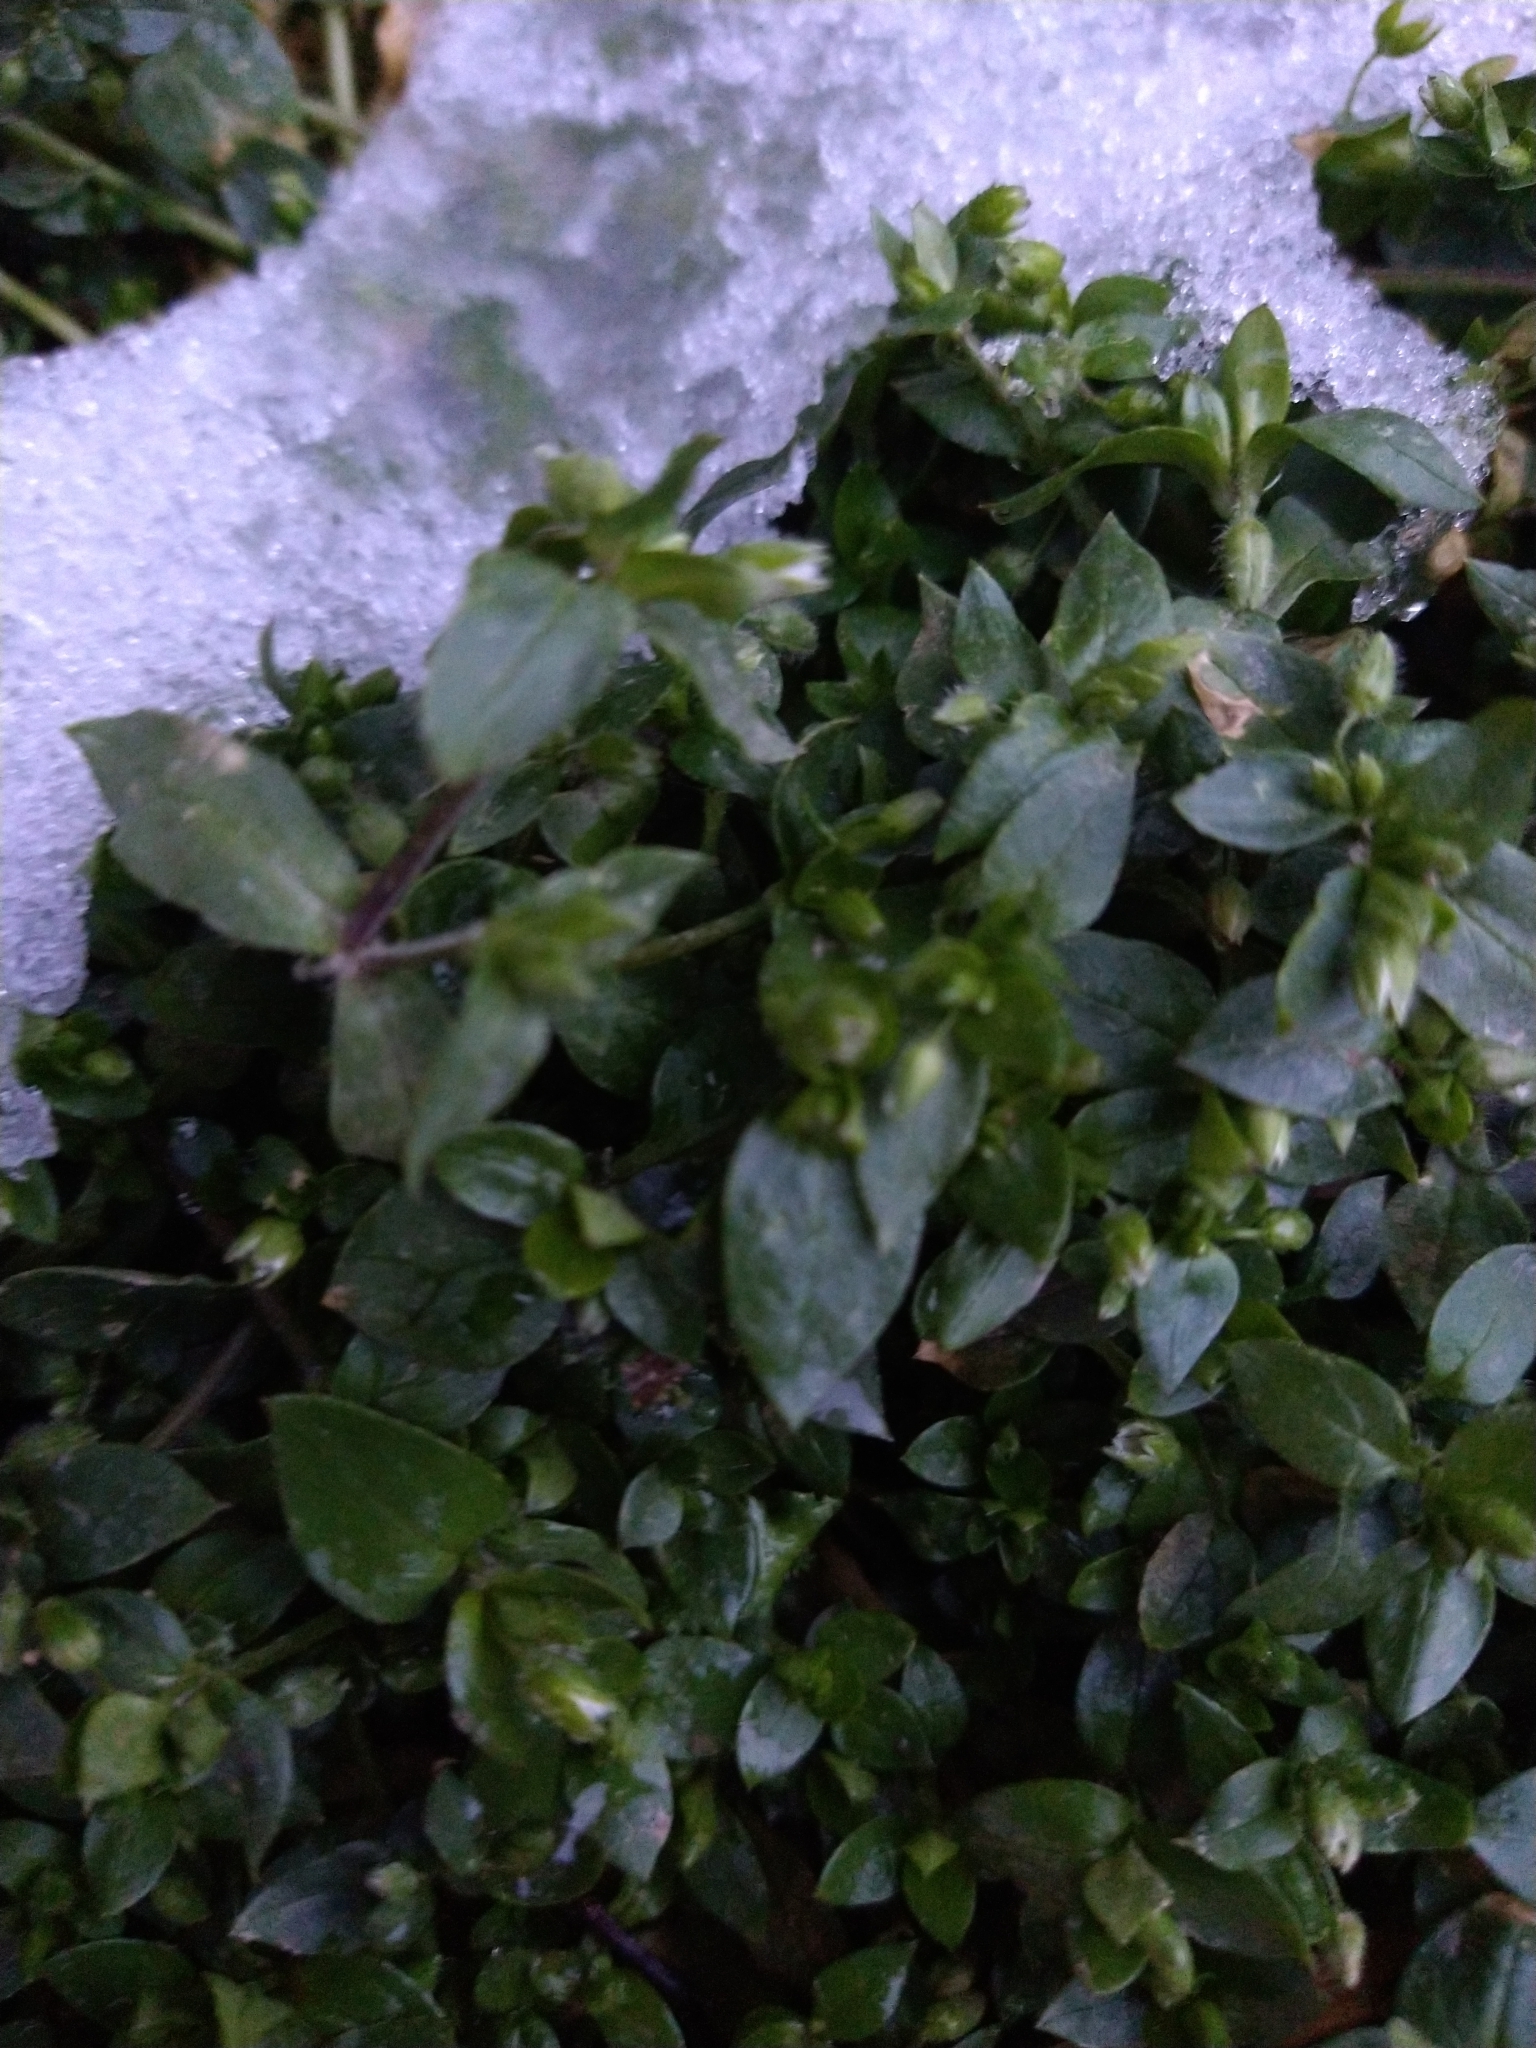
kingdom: Plantae
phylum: Tracheophyta
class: Magnoliopsida
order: Caryophyllales
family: Caryophyllaceae
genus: Stellaria
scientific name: Stellaria media
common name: Common chickweed
